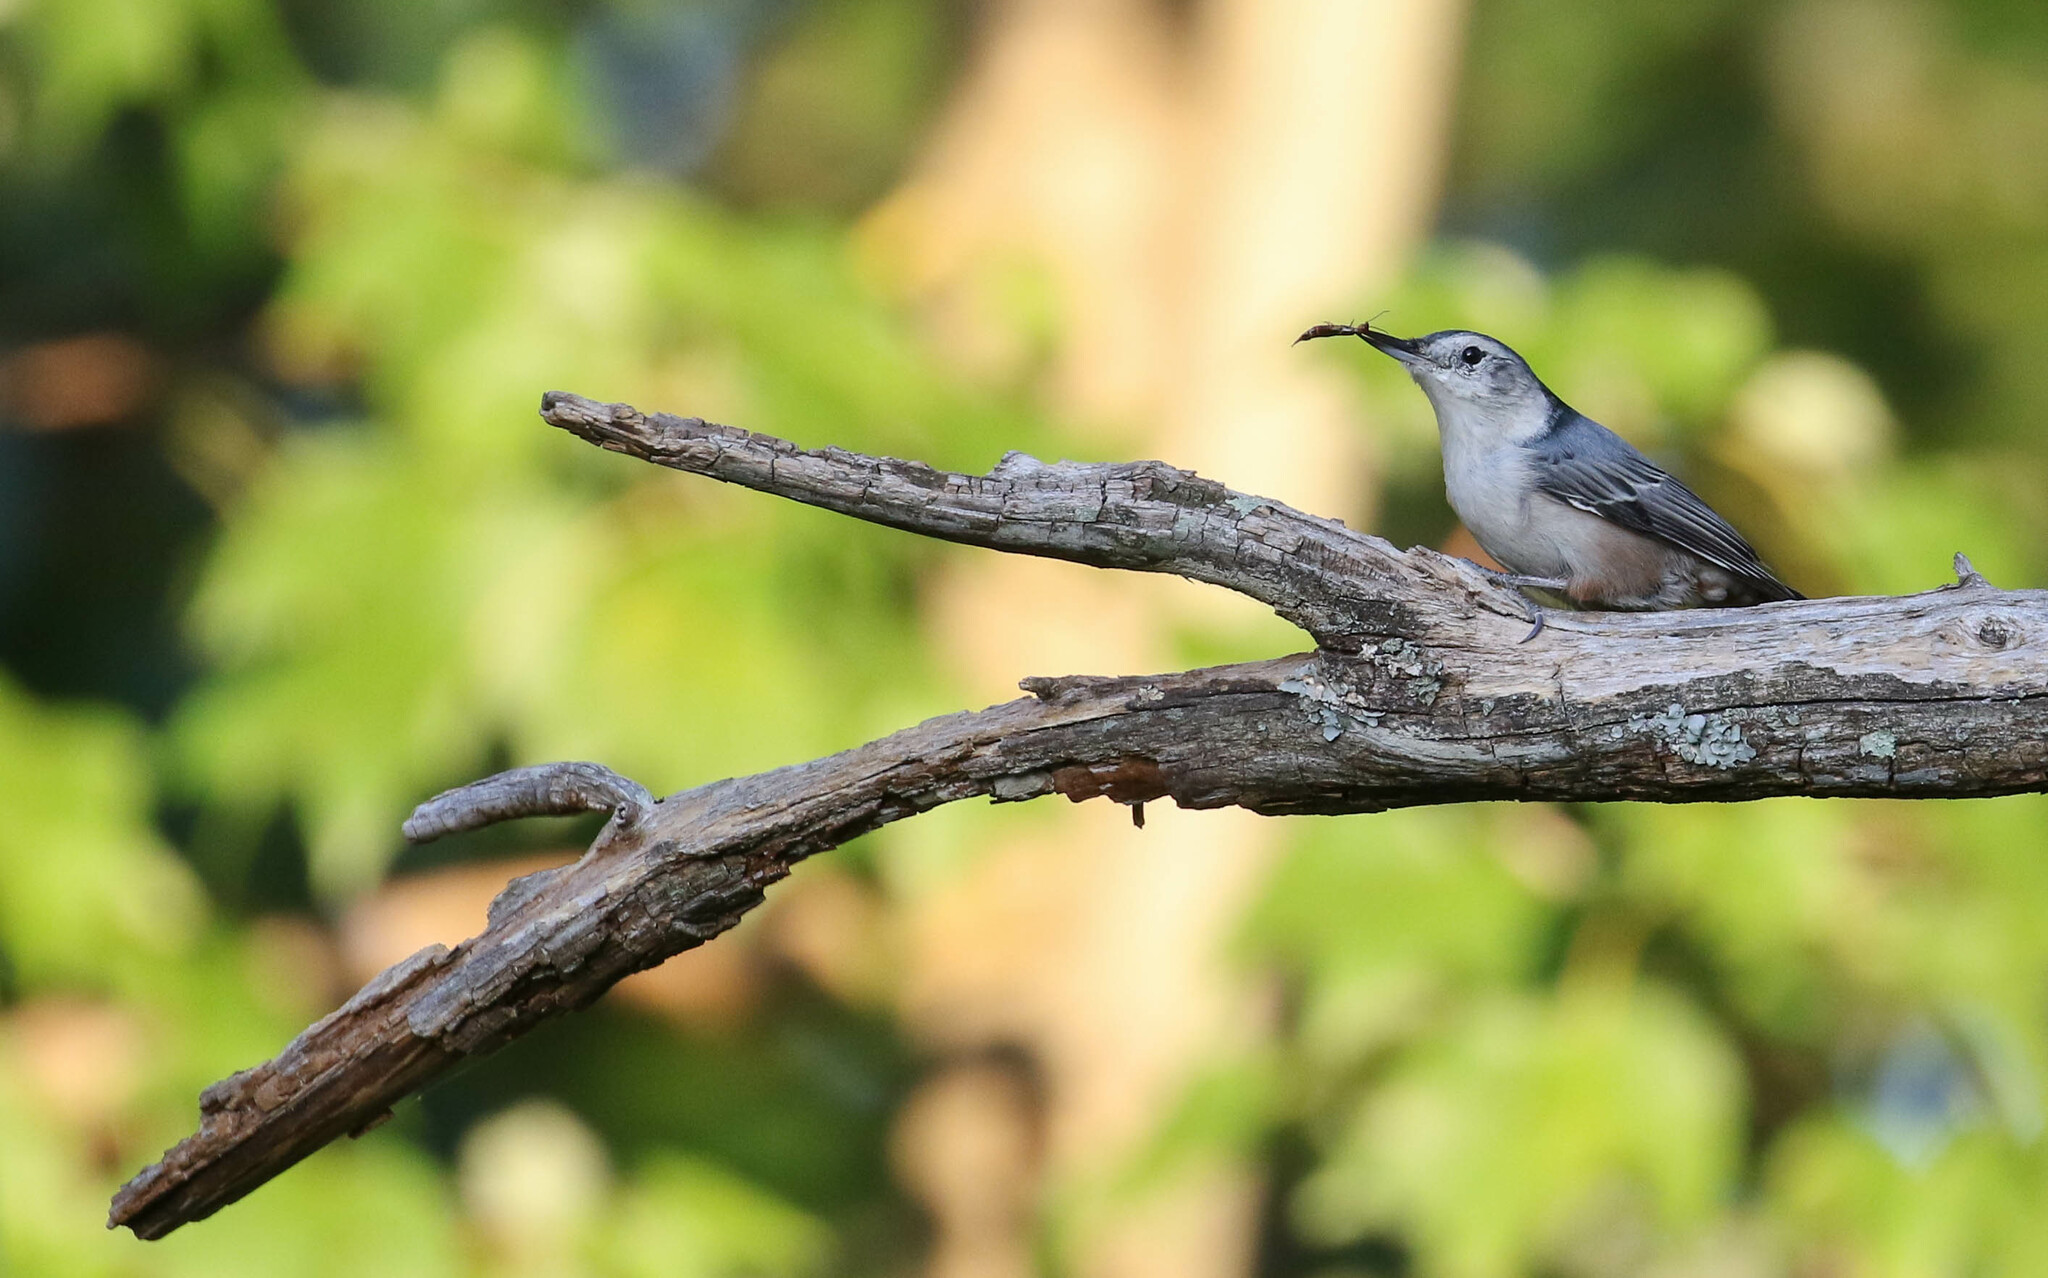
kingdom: Animalia
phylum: Chordata
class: Aves
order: Passeriformes
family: Sittidae
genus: Sitta
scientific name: Sitta carolinensis
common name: White-breasted nuthatch
